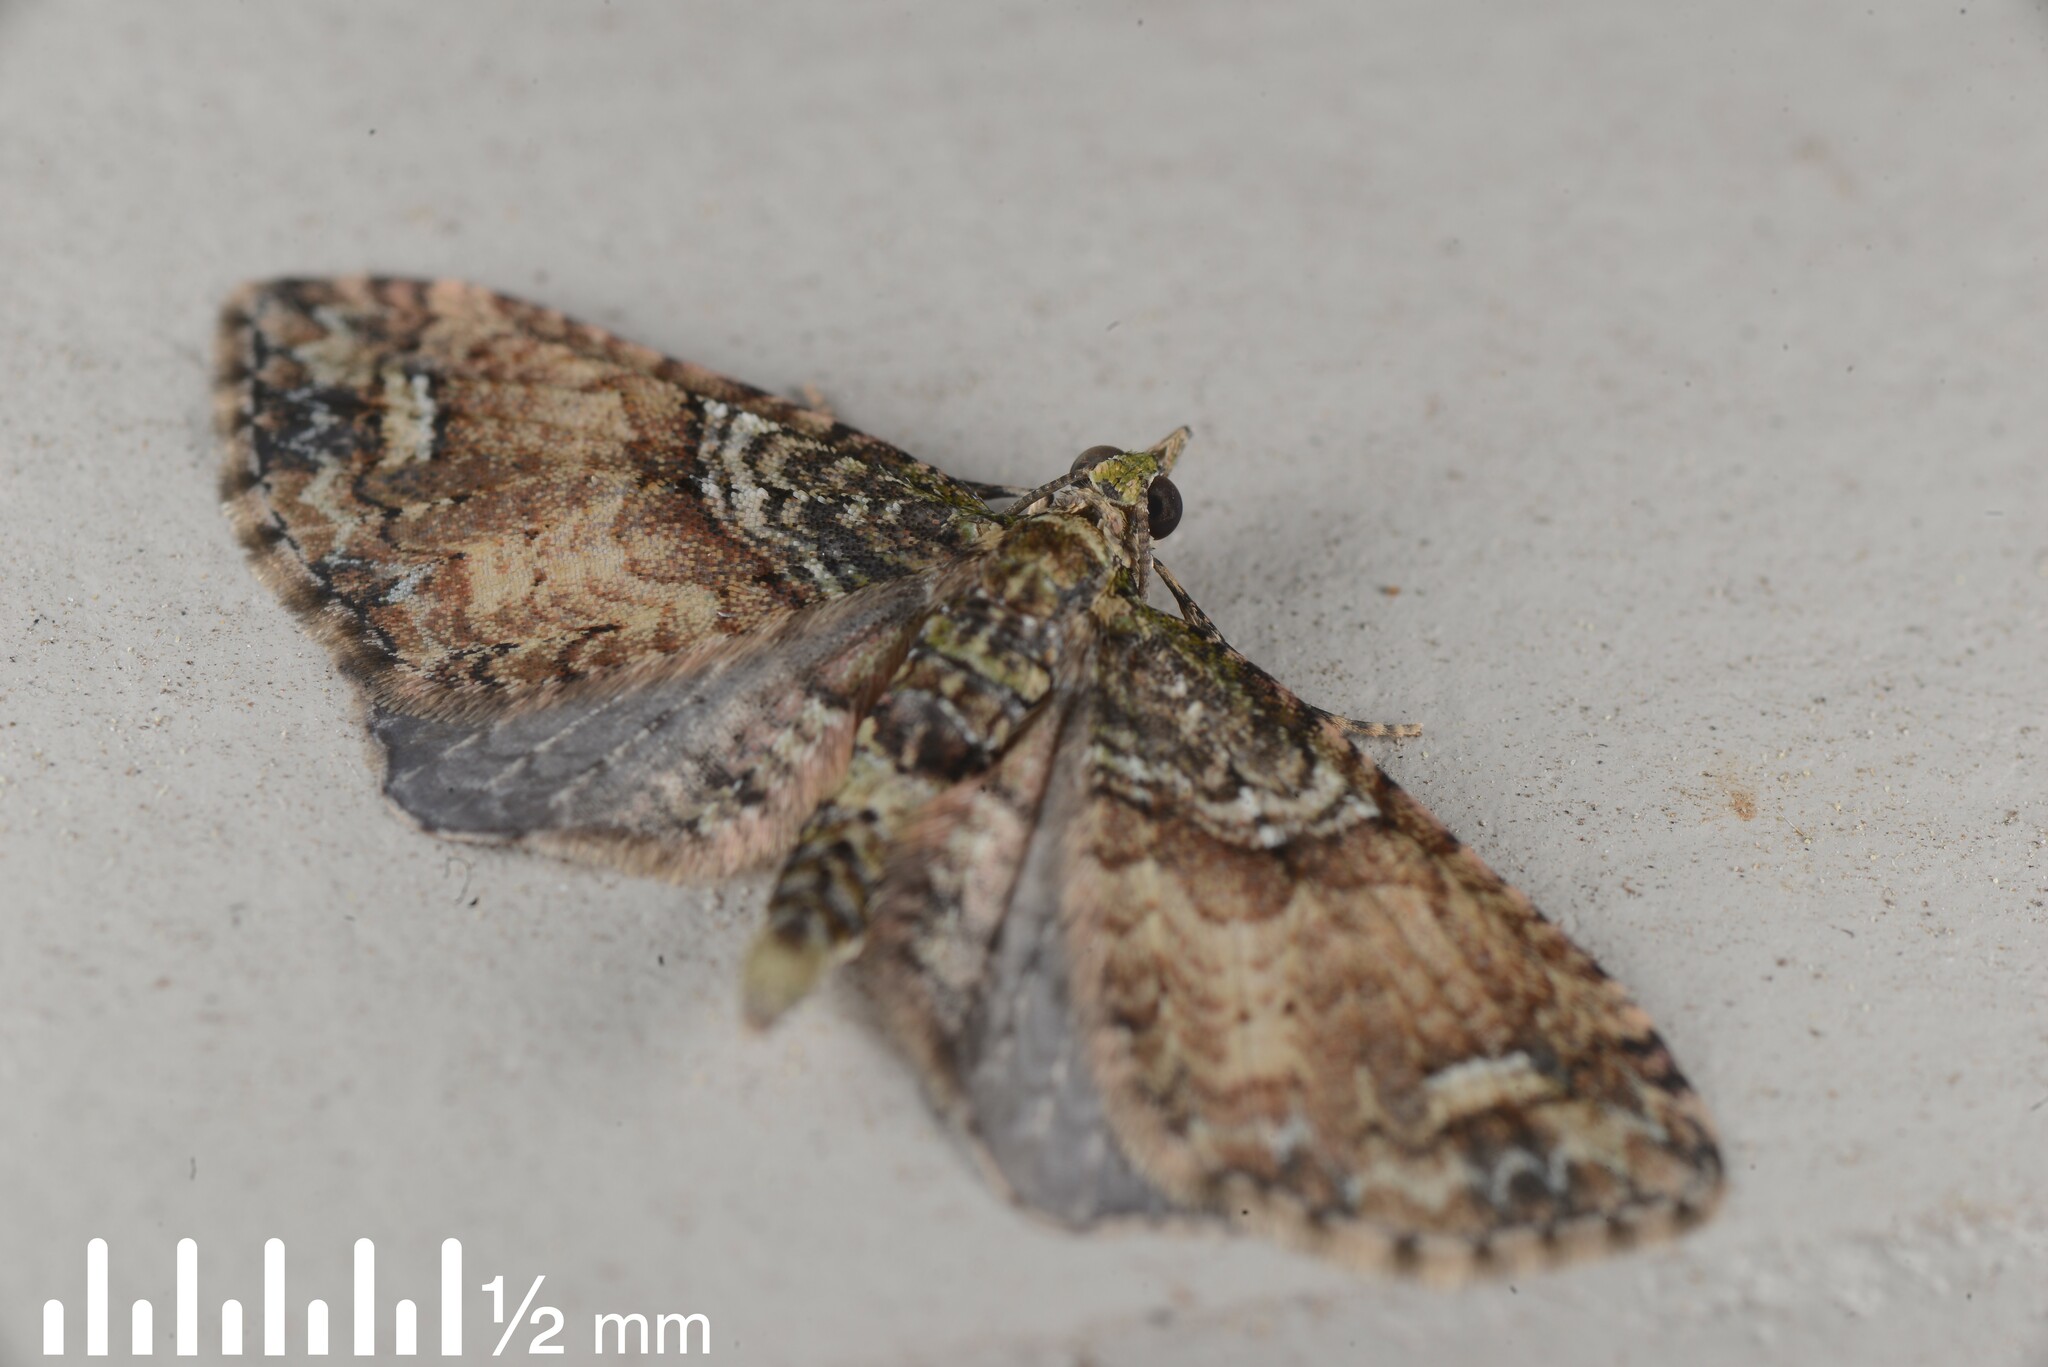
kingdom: Animalia
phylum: Arthropoda
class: Insecta
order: Lepidoptera
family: Geometridae
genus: Idaea
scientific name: Idaea mutanda
